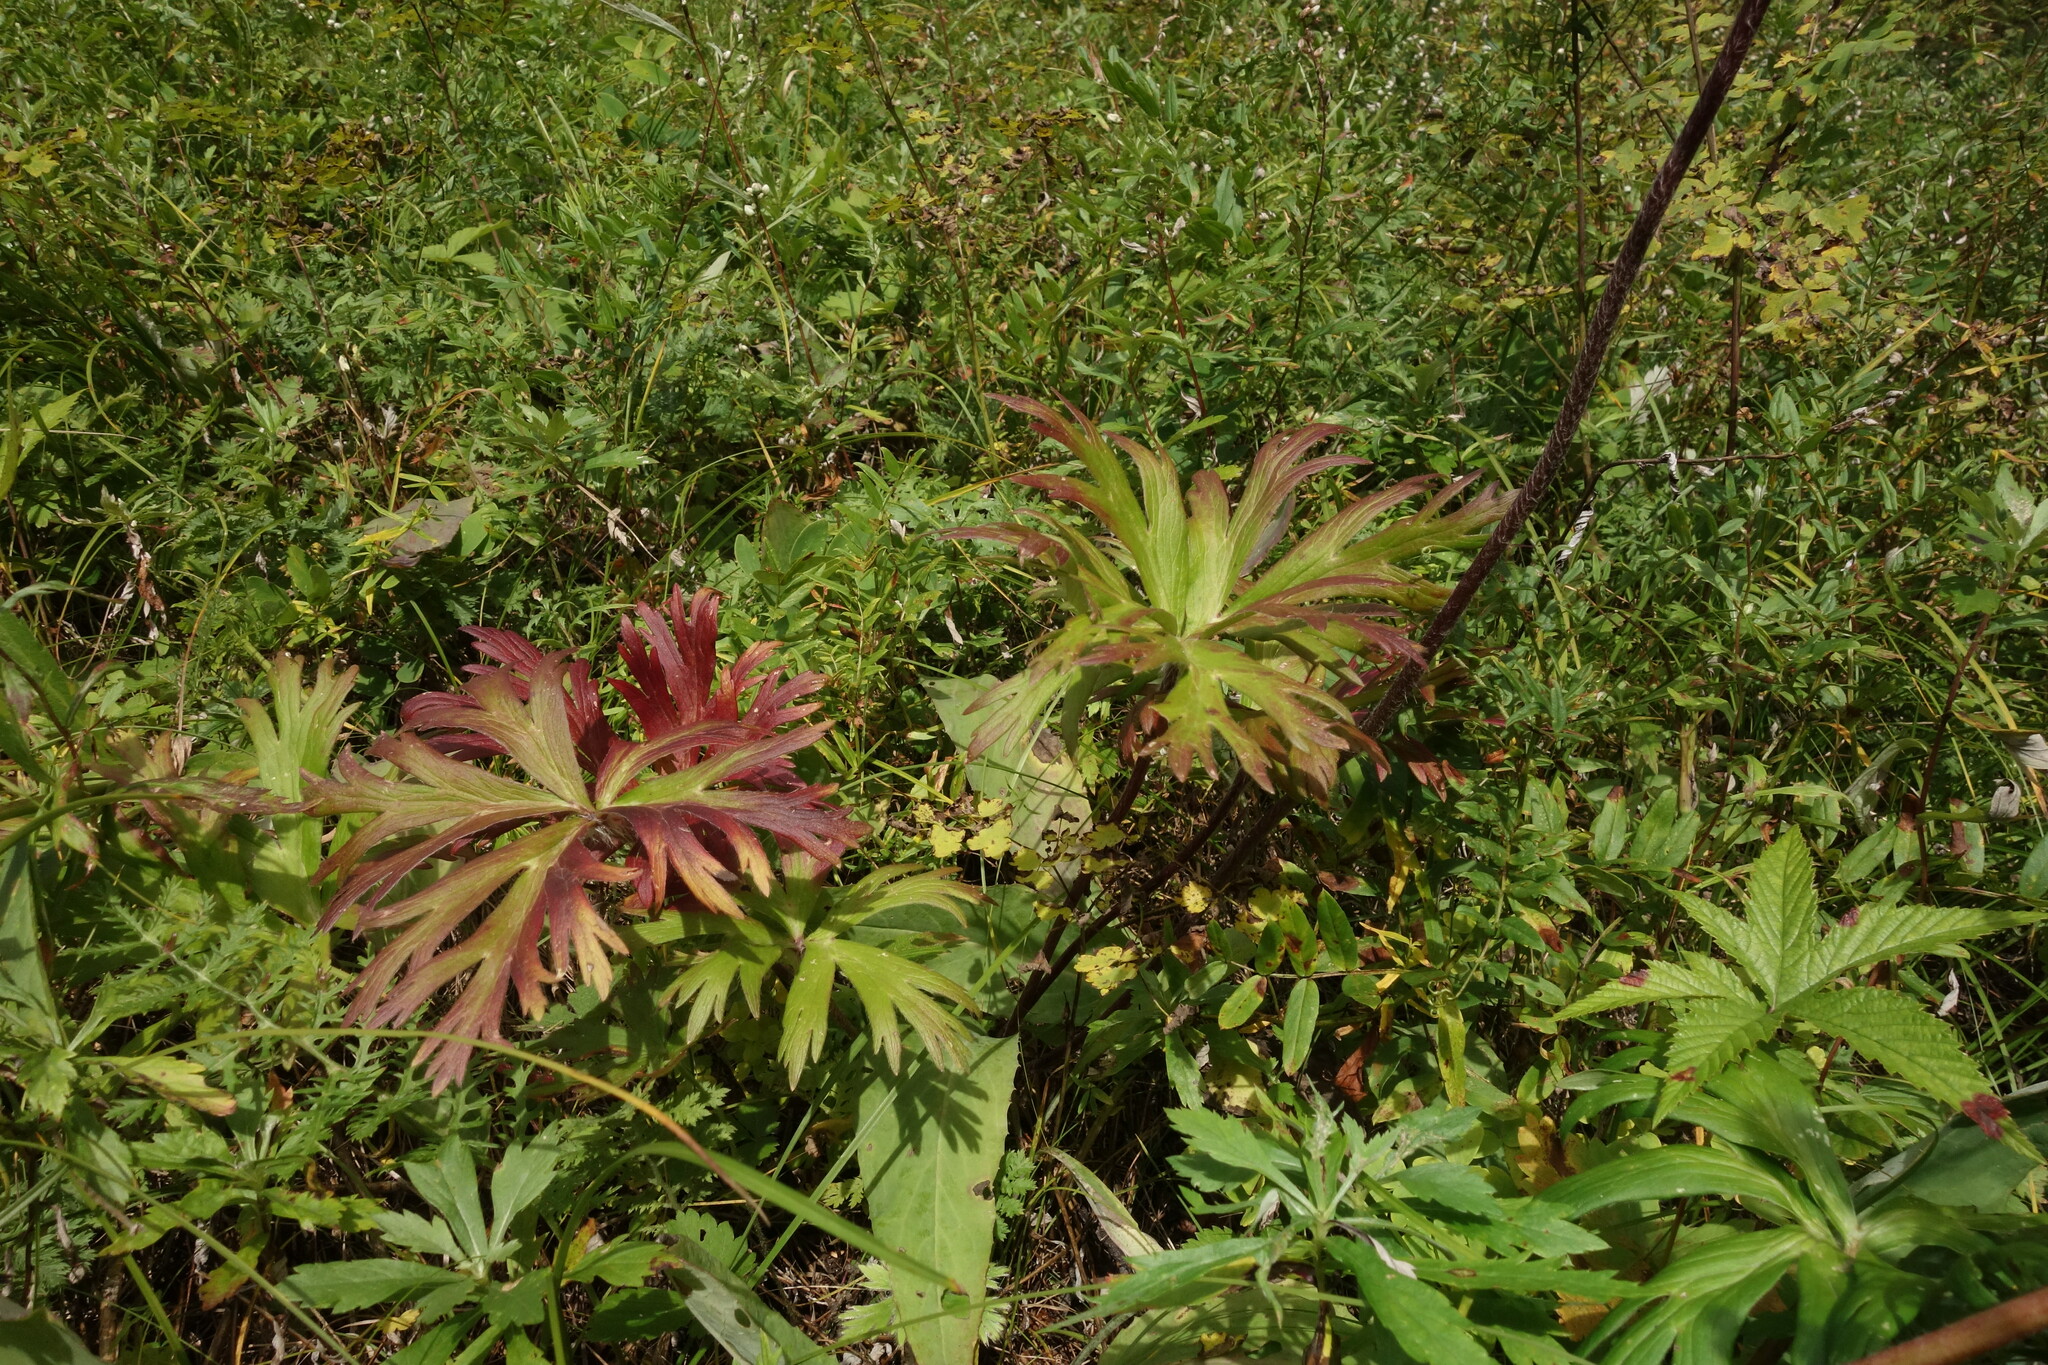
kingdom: Plantae
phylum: Tracheophyta
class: Magnoliopsida
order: Ranunculales
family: Ranunculaceae
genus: Anemonastrum
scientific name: Anemonastrum narcissiflorum
